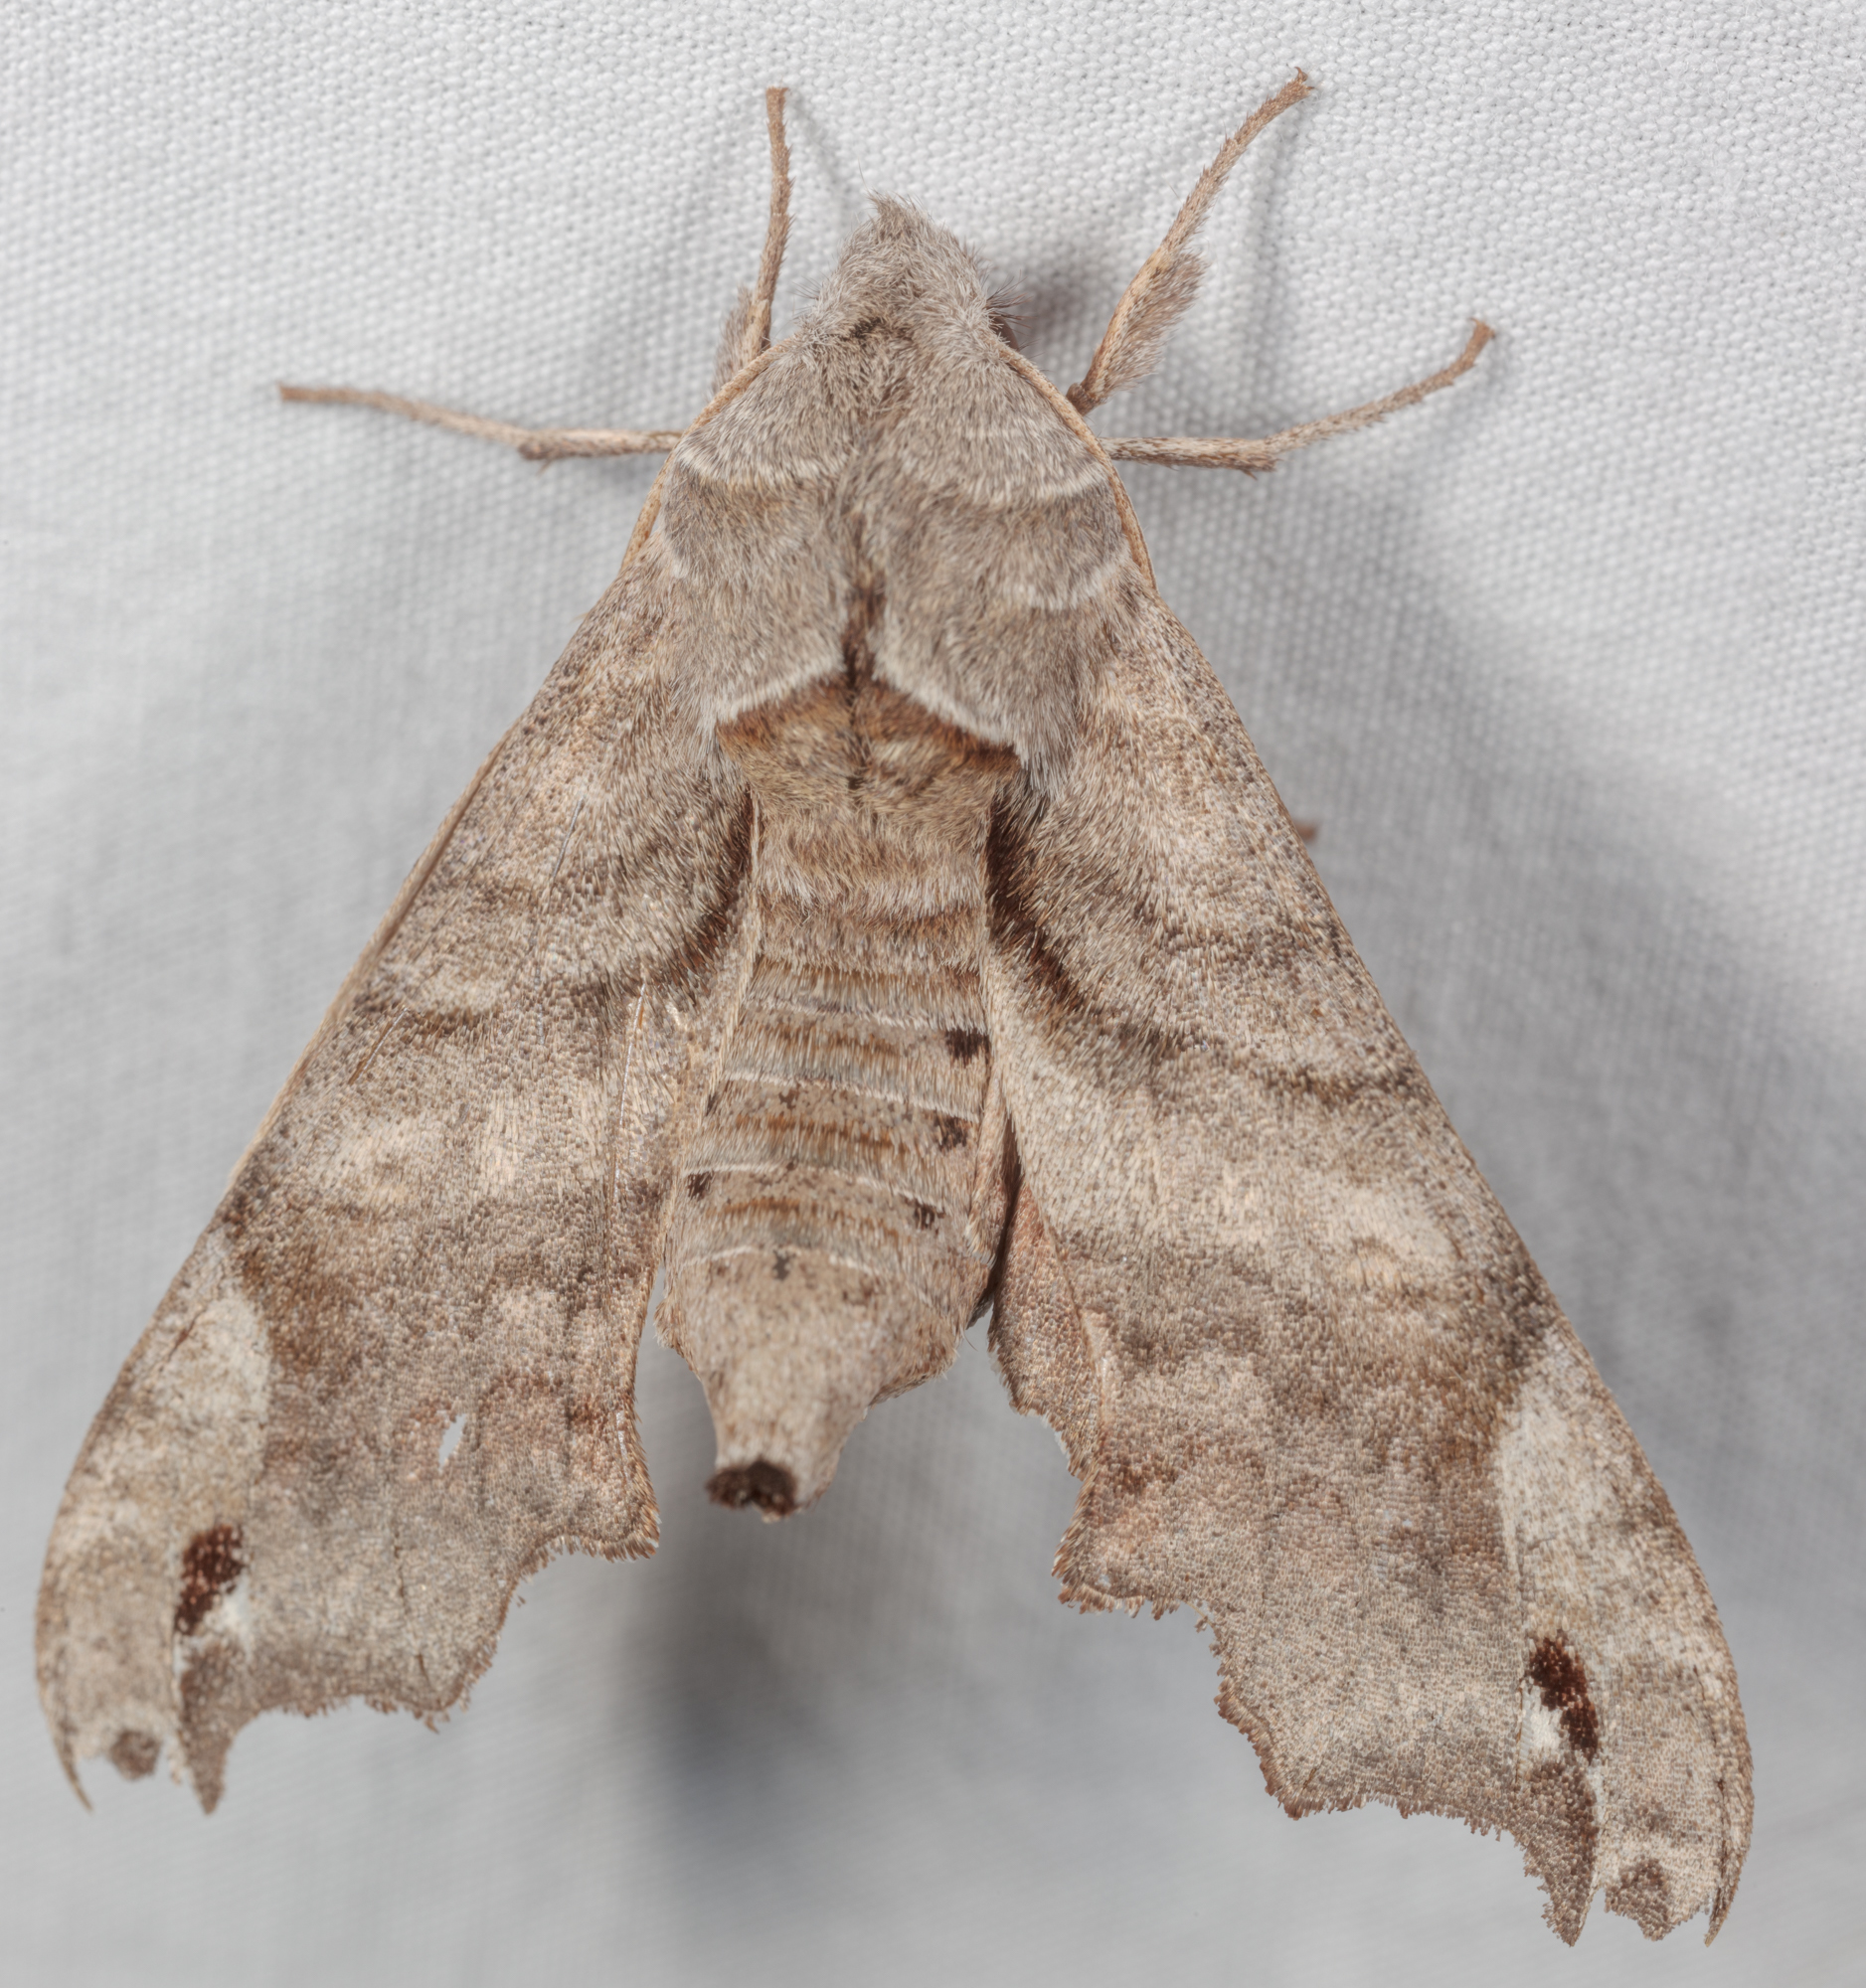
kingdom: Animalia
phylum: Arthropoda
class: Insecta
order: Lepidoptera
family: Sphingidae
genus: Deidamia
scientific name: Deidamia inscriptum
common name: Lettered sphinx
